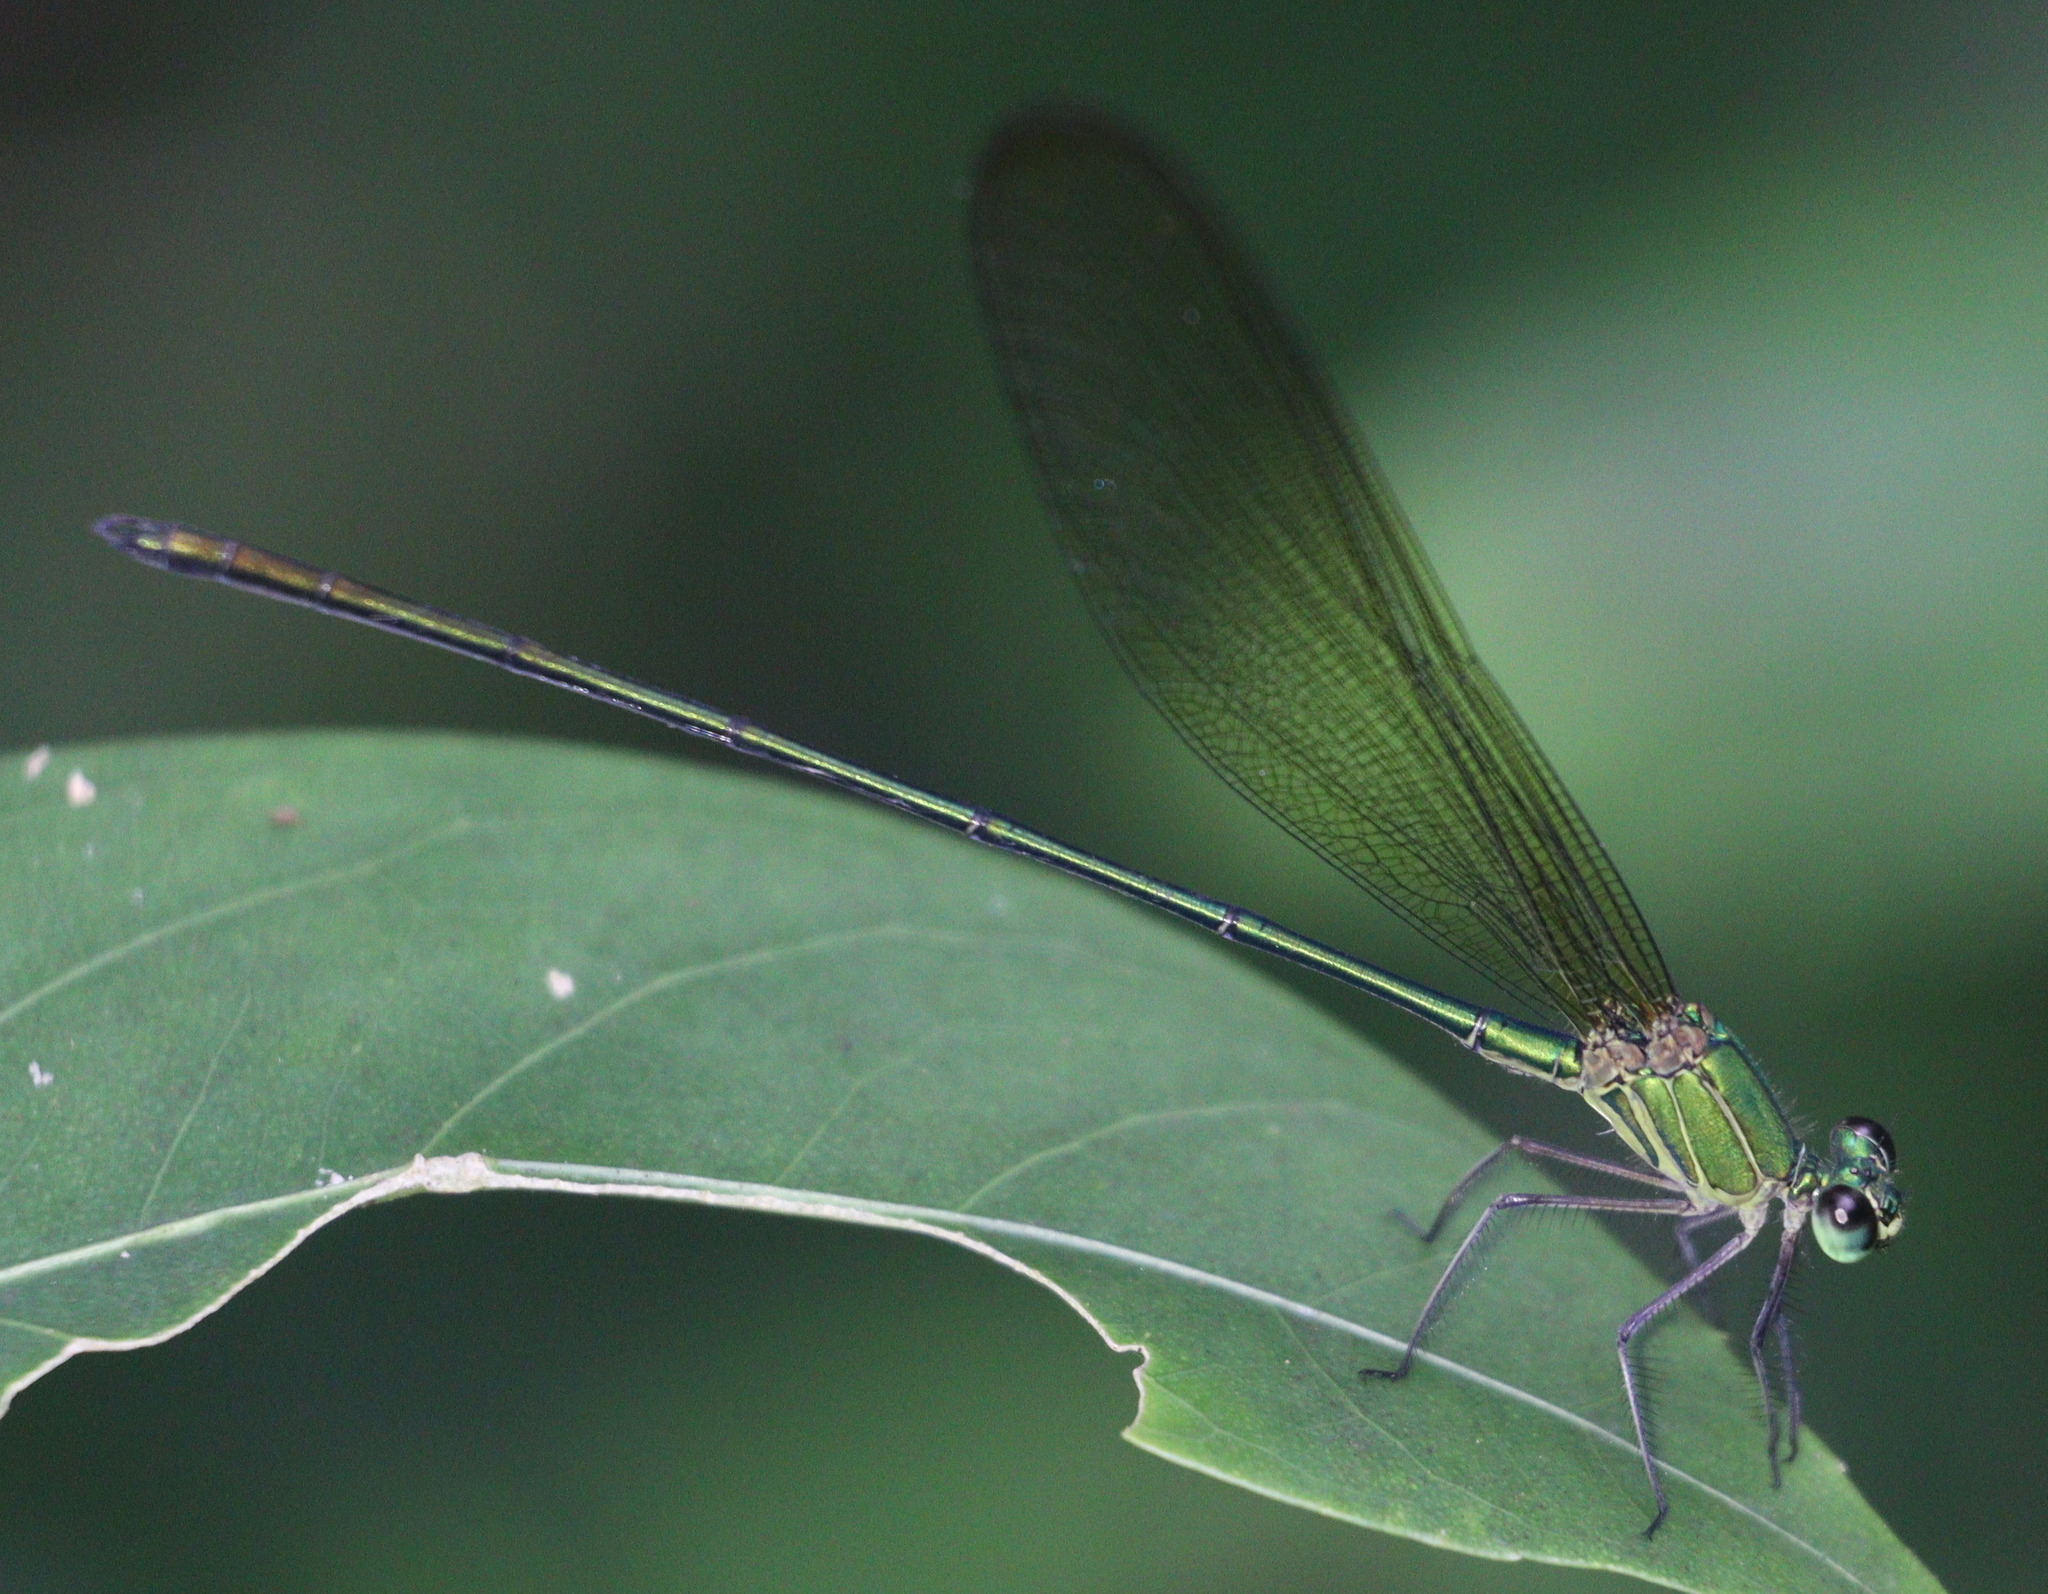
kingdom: Animalia
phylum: Arthropoda
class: Insecta
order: Odonata
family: Calopterygidae
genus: Vestalis
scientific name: Vestalis gracilis
